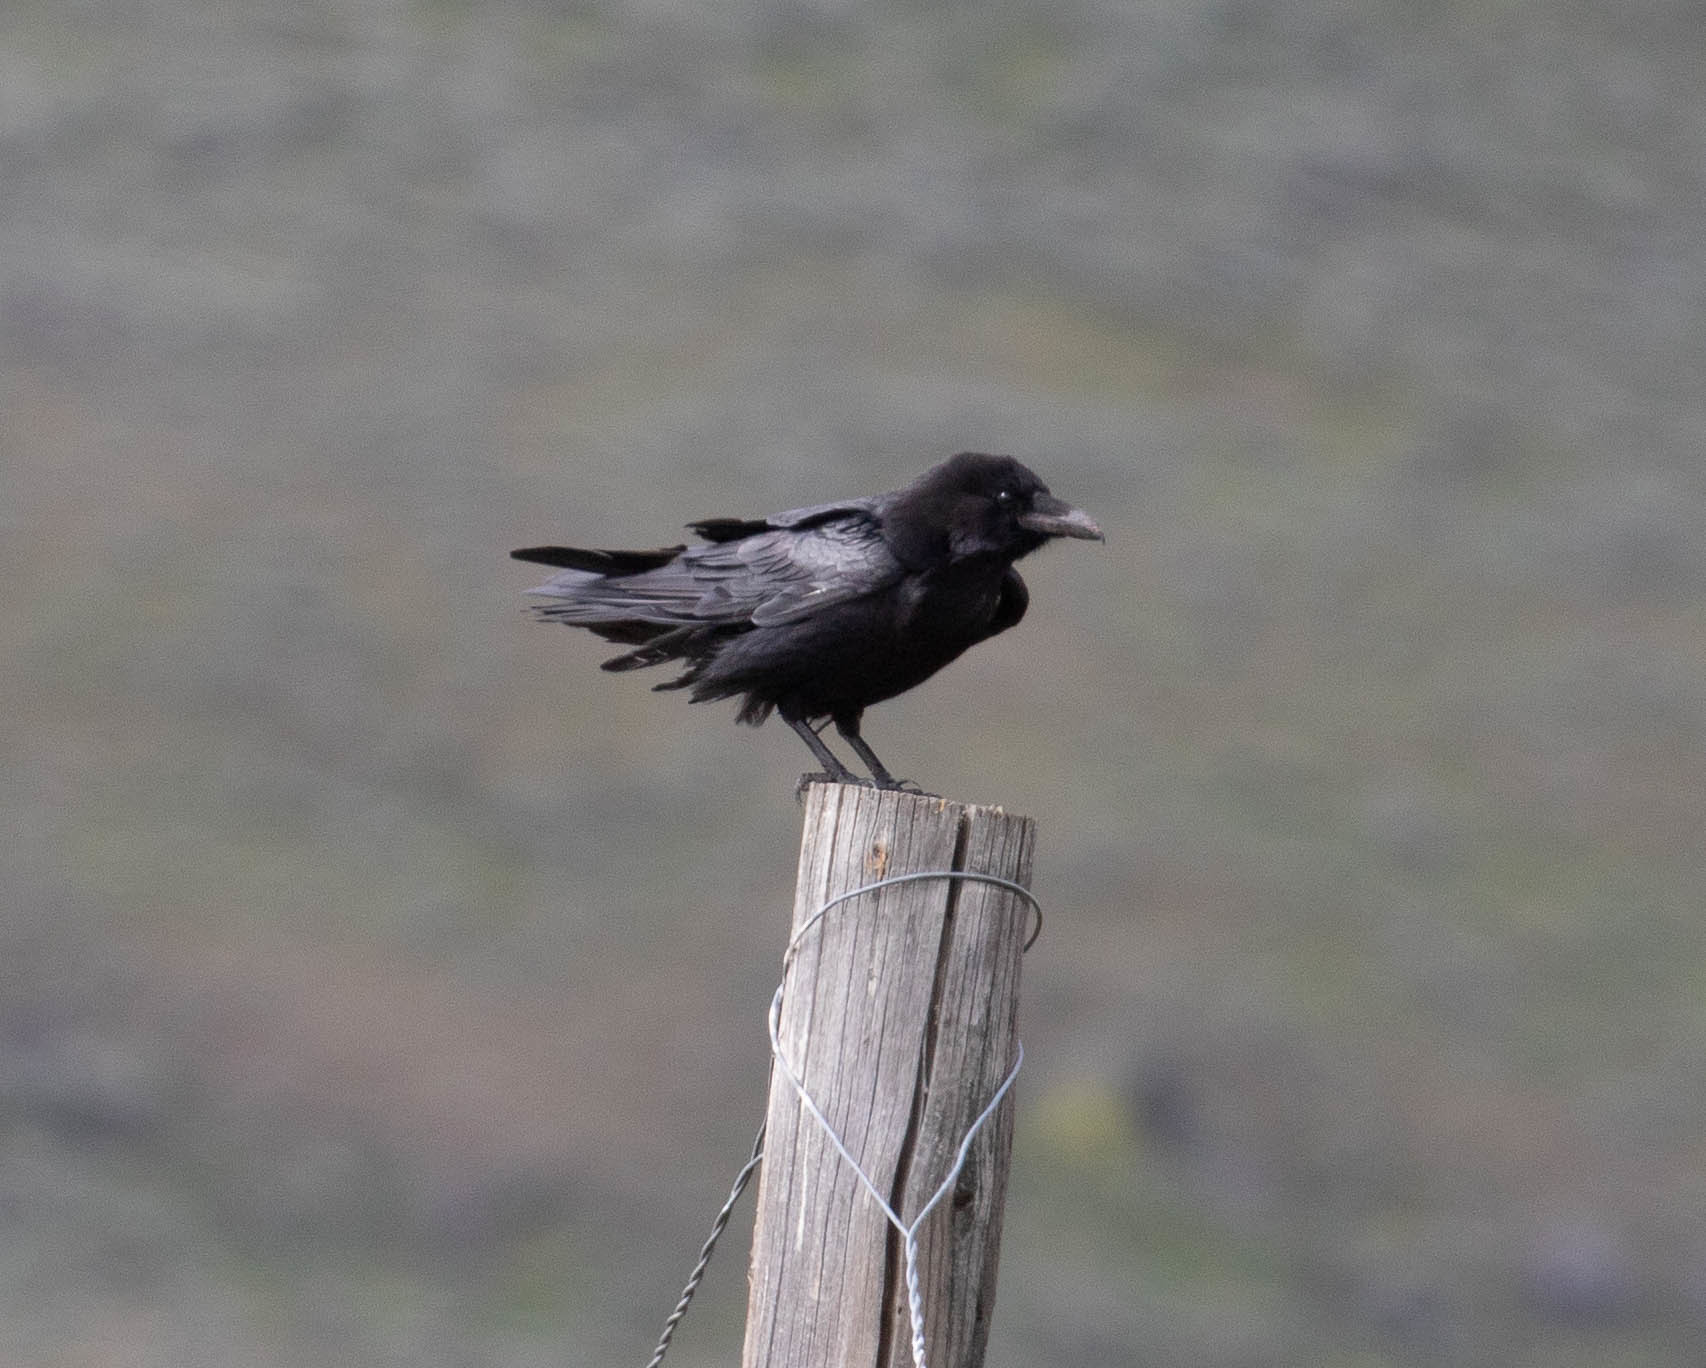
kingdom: Animalia
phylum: Chordata
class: Aves
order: Passeriformes
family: Corvidae
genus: Corvus
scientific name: Corvus corax
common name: Common raven
